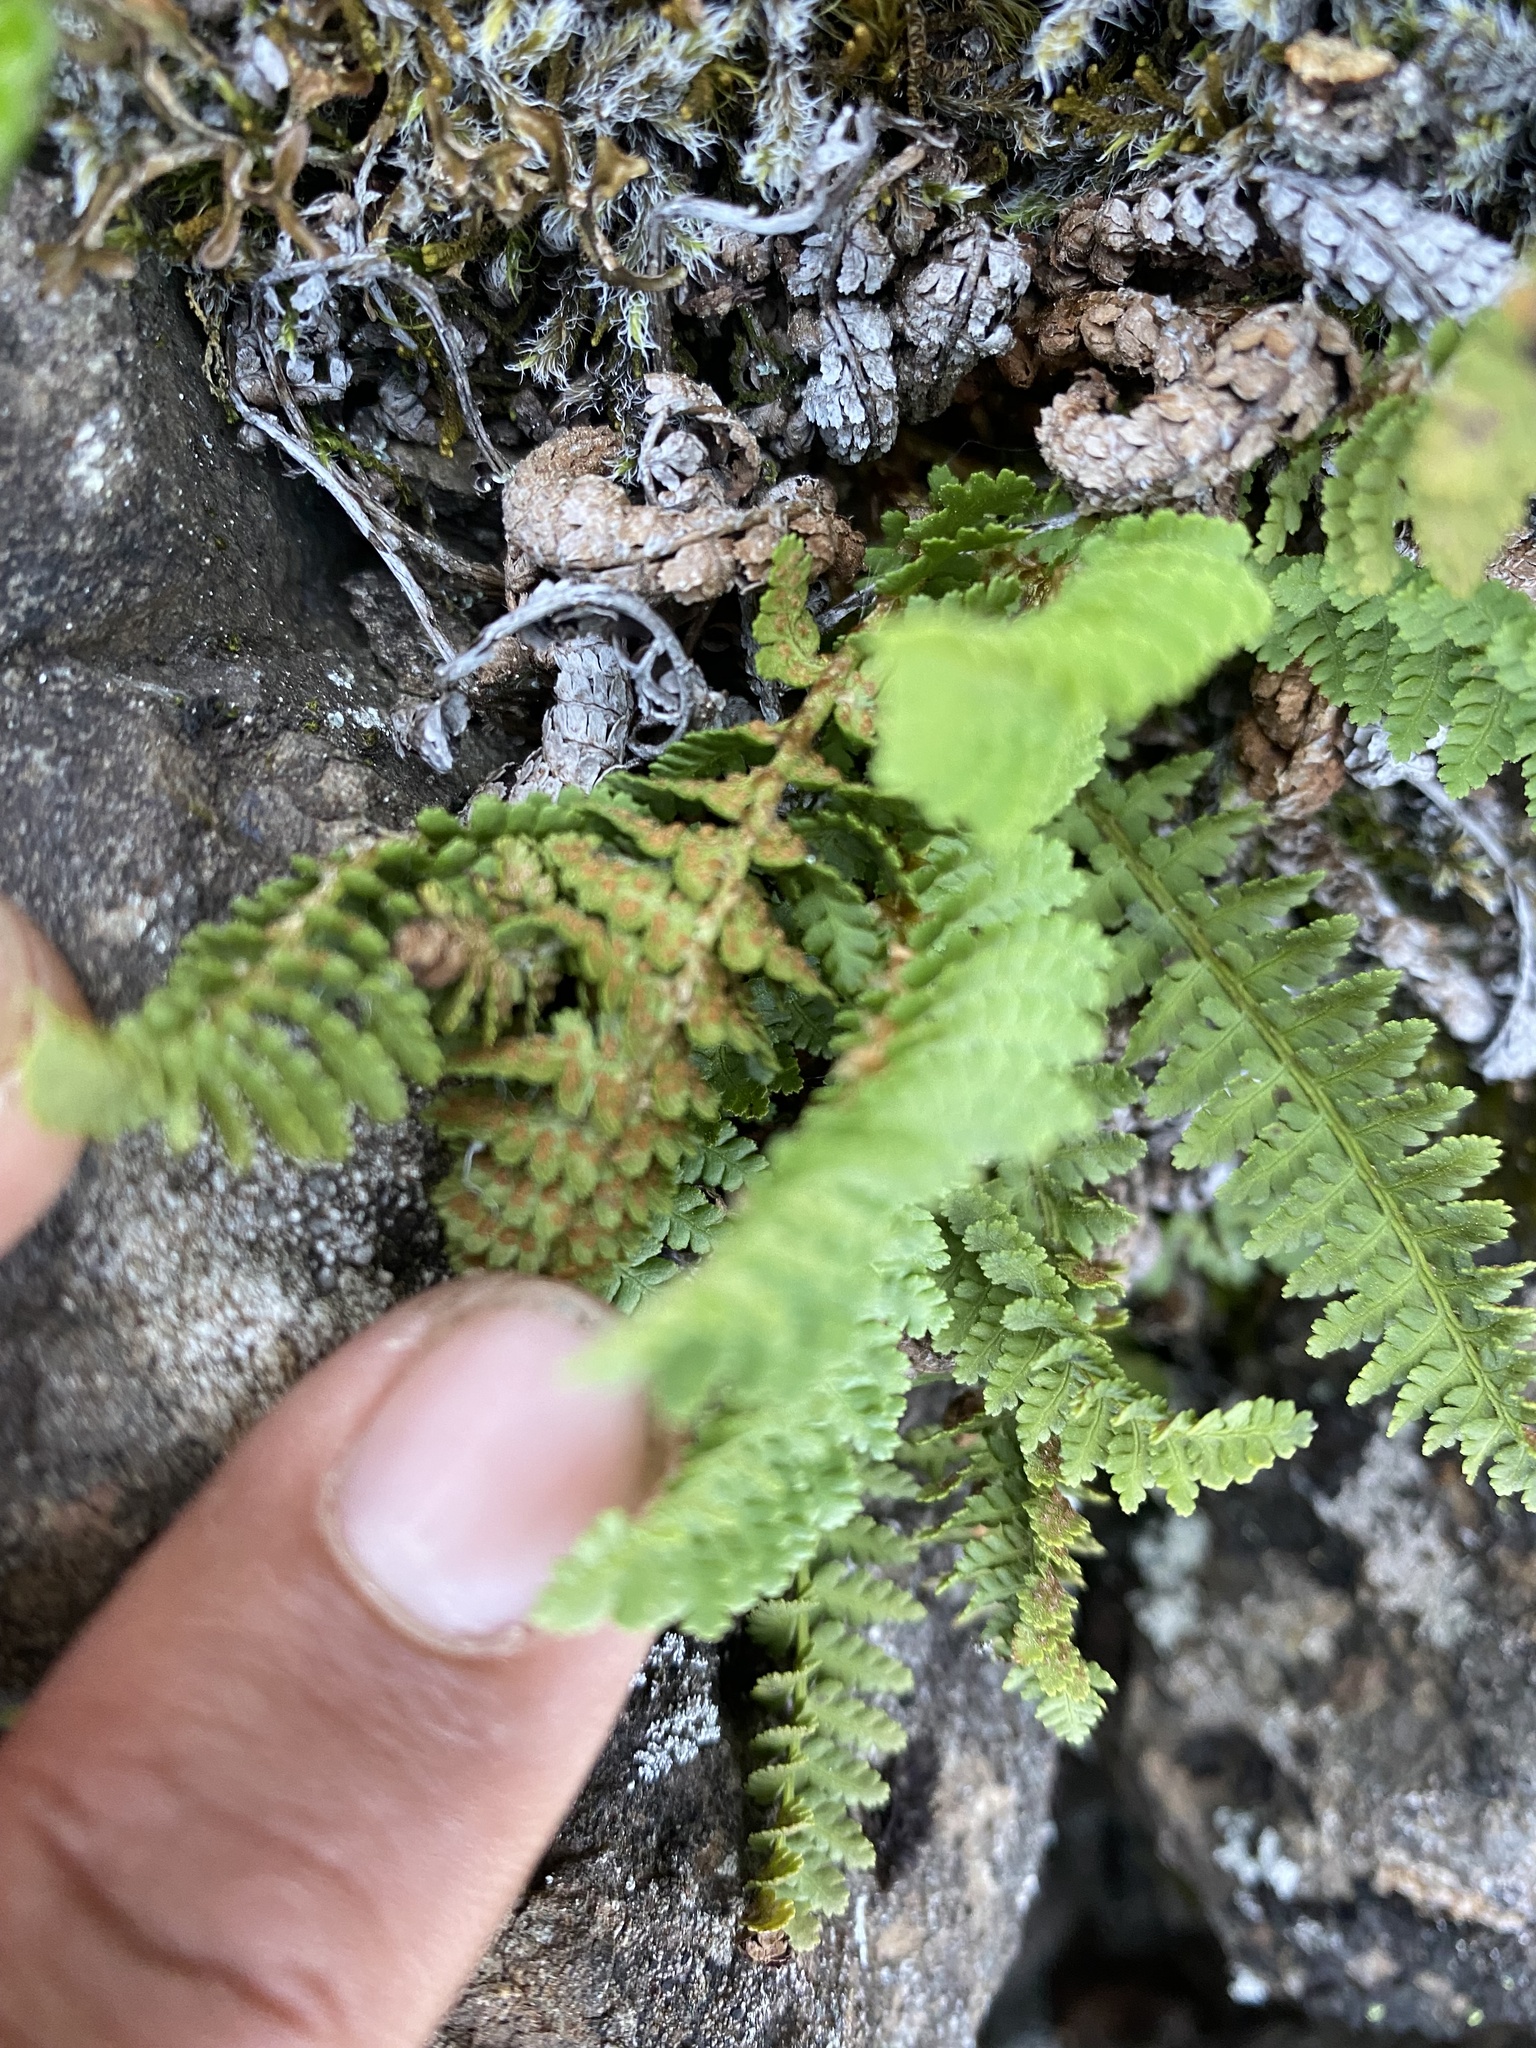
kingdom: Plantae
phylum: Tracheophyta
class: Polypodiopsida
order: Polypodiales
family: Dryopteridaceae
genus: Dryopteris
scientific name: Dryopteris fragrans
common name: Fragrant wood fern
